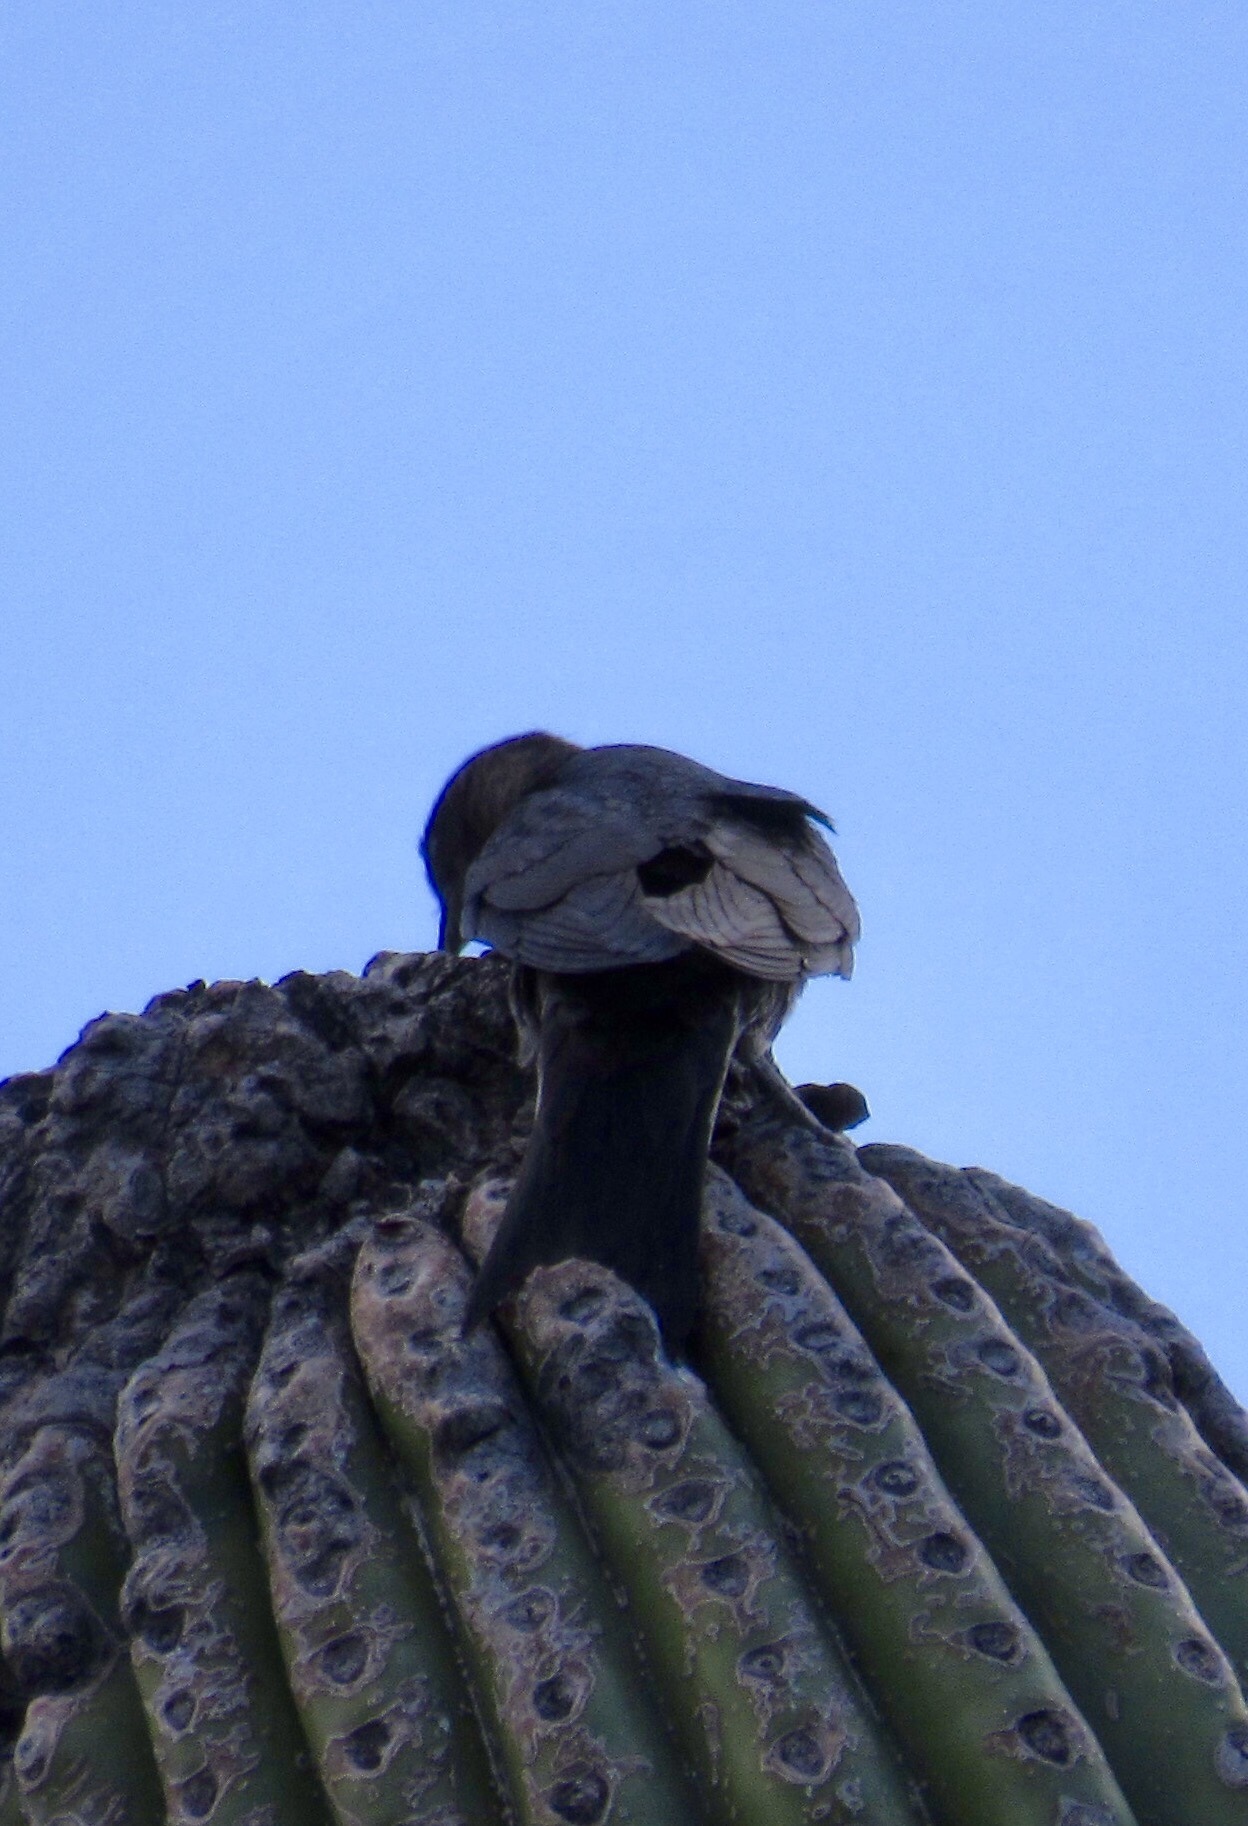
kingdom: Animalia
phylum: Chordata
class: Aves
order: Passeriformes
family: Hirundinidae
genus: Progne
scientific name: Progne subis
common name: Purple martin
